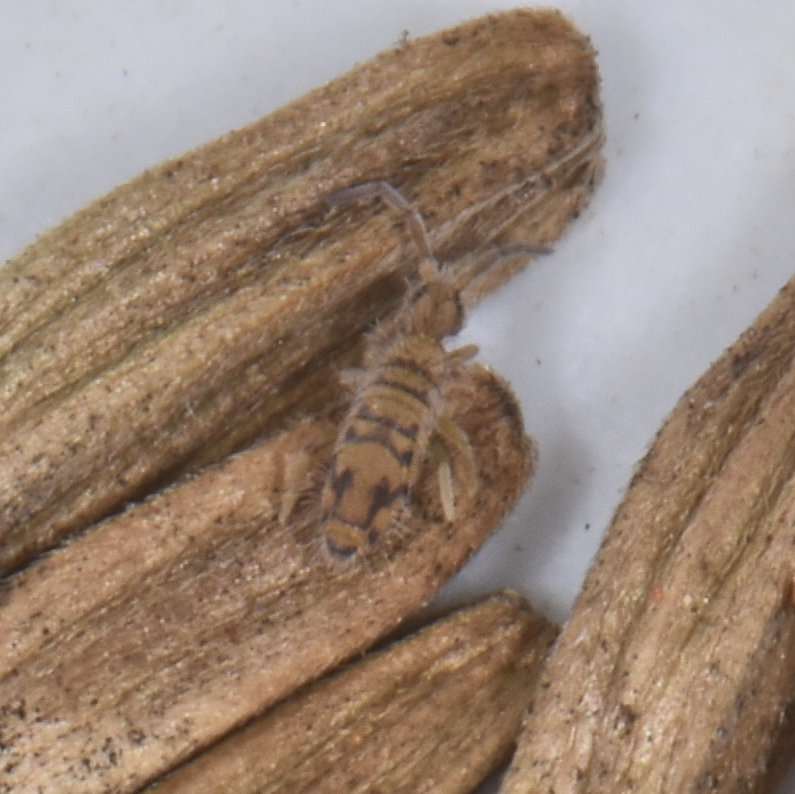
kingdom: Animalia
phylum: Arthropoda
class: Collembola
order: Entomobryomorpha
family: Entomobryidae
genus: Entomobrya
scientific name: Entomobrya nivalis
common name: Cosmopolitan springtail
